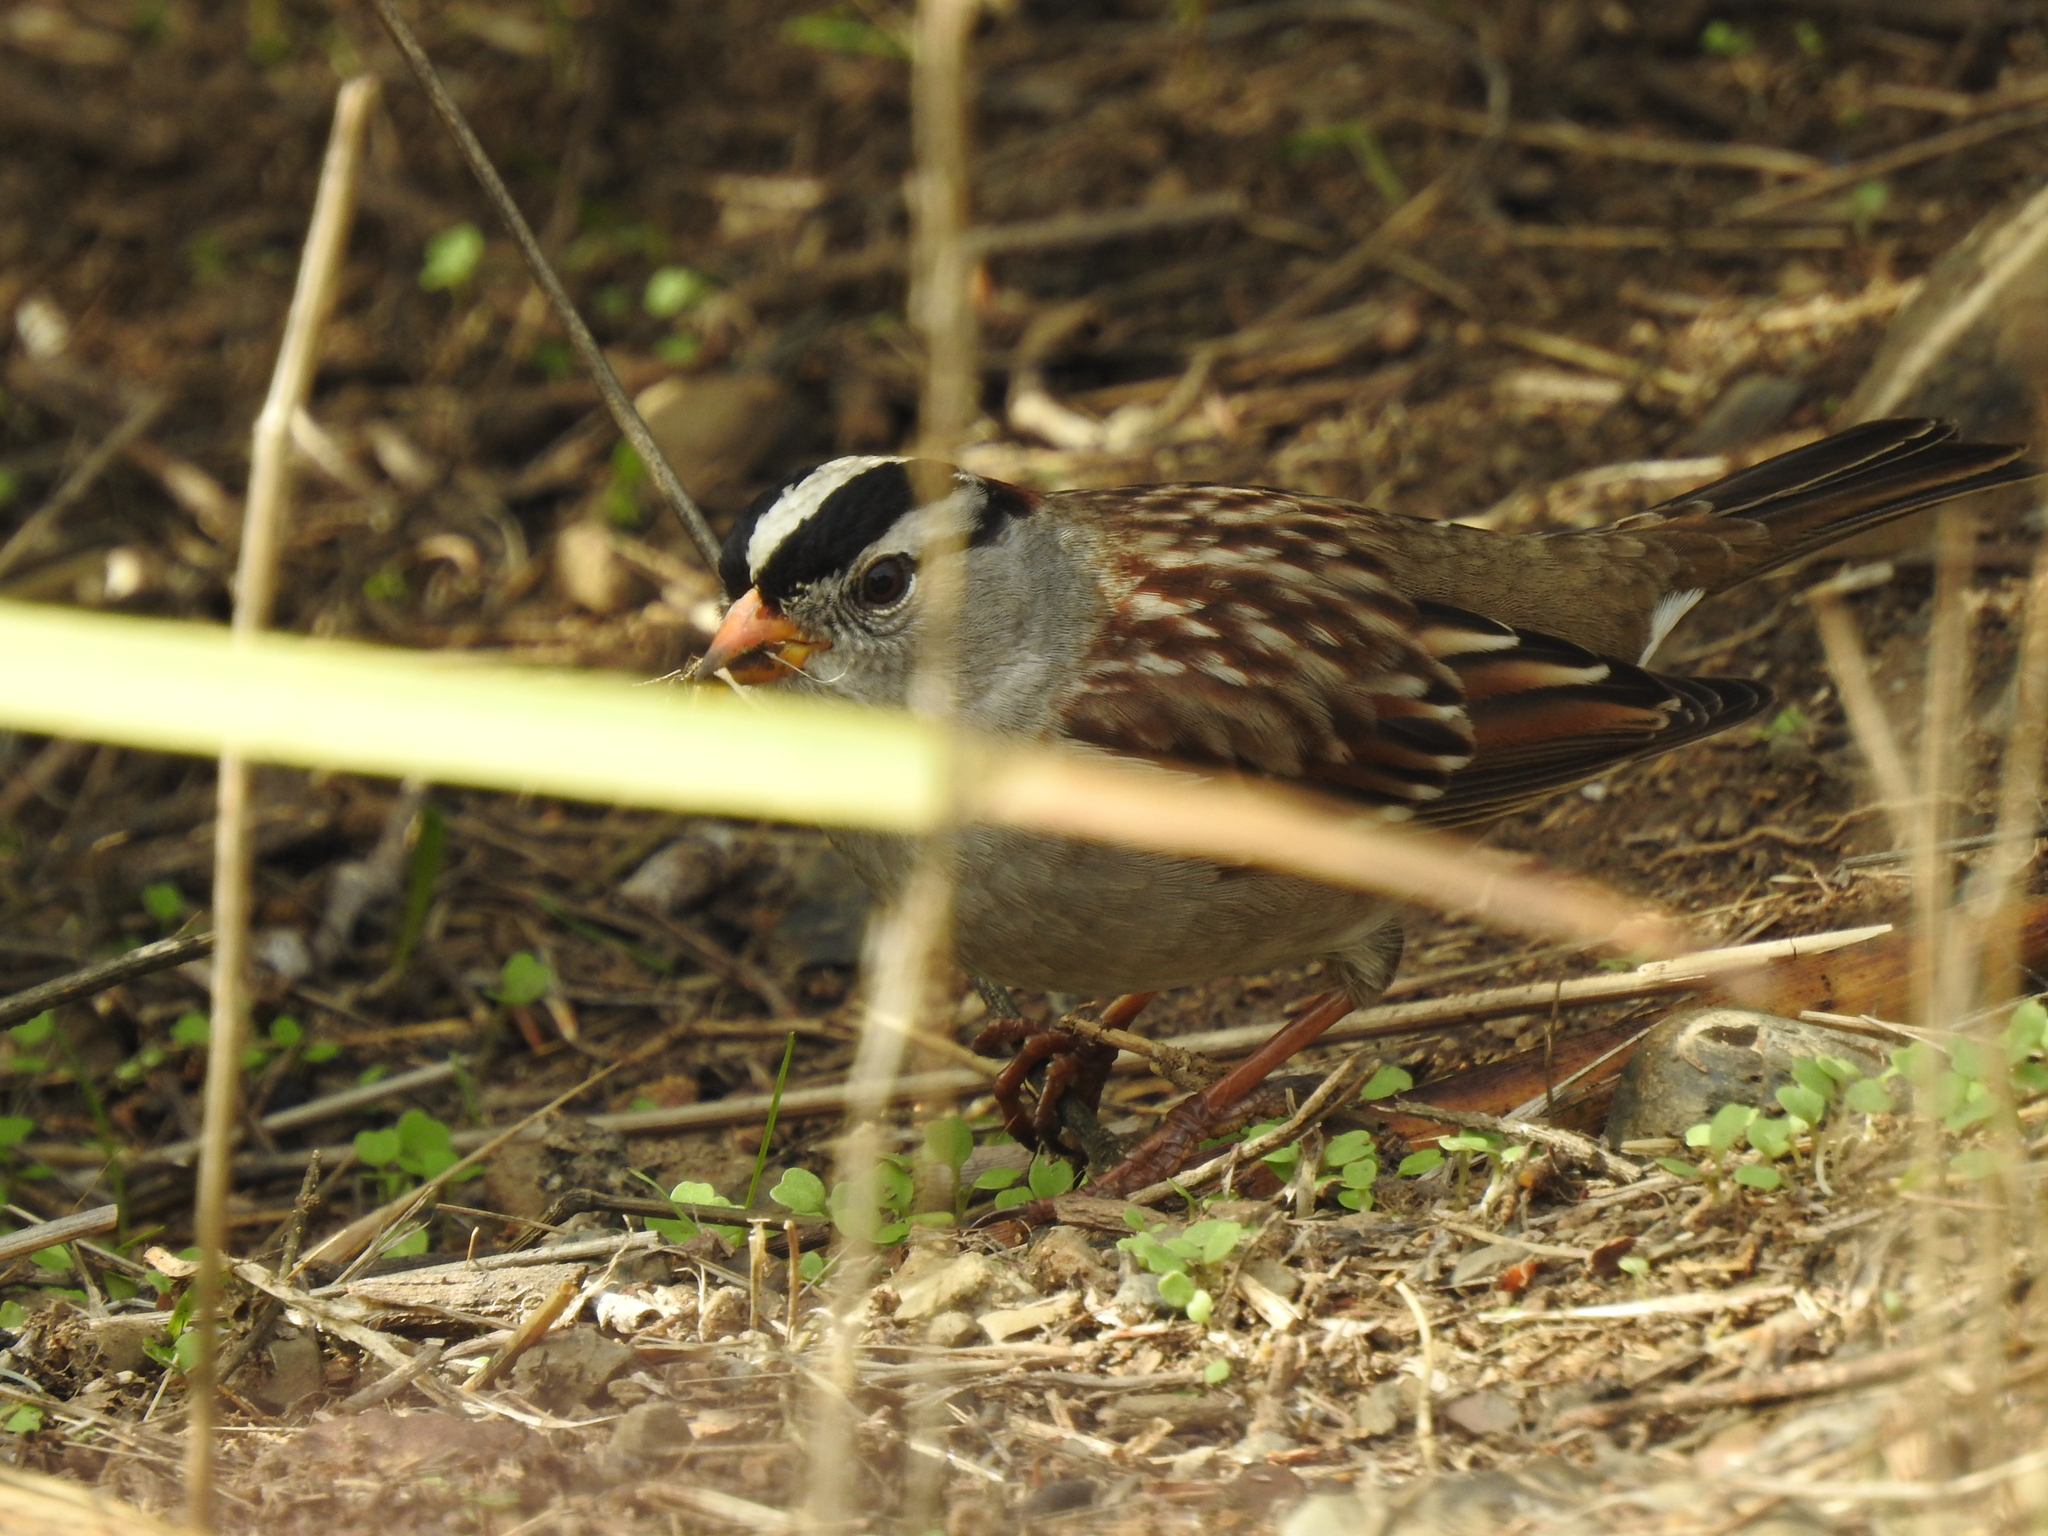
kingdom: Animalia
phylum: Chordata
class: Aves
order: Passeriformes
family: Passerellidae
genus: Zonotrichia
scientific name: Zonotrichia leucophrys
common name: White-crowned sparrow
